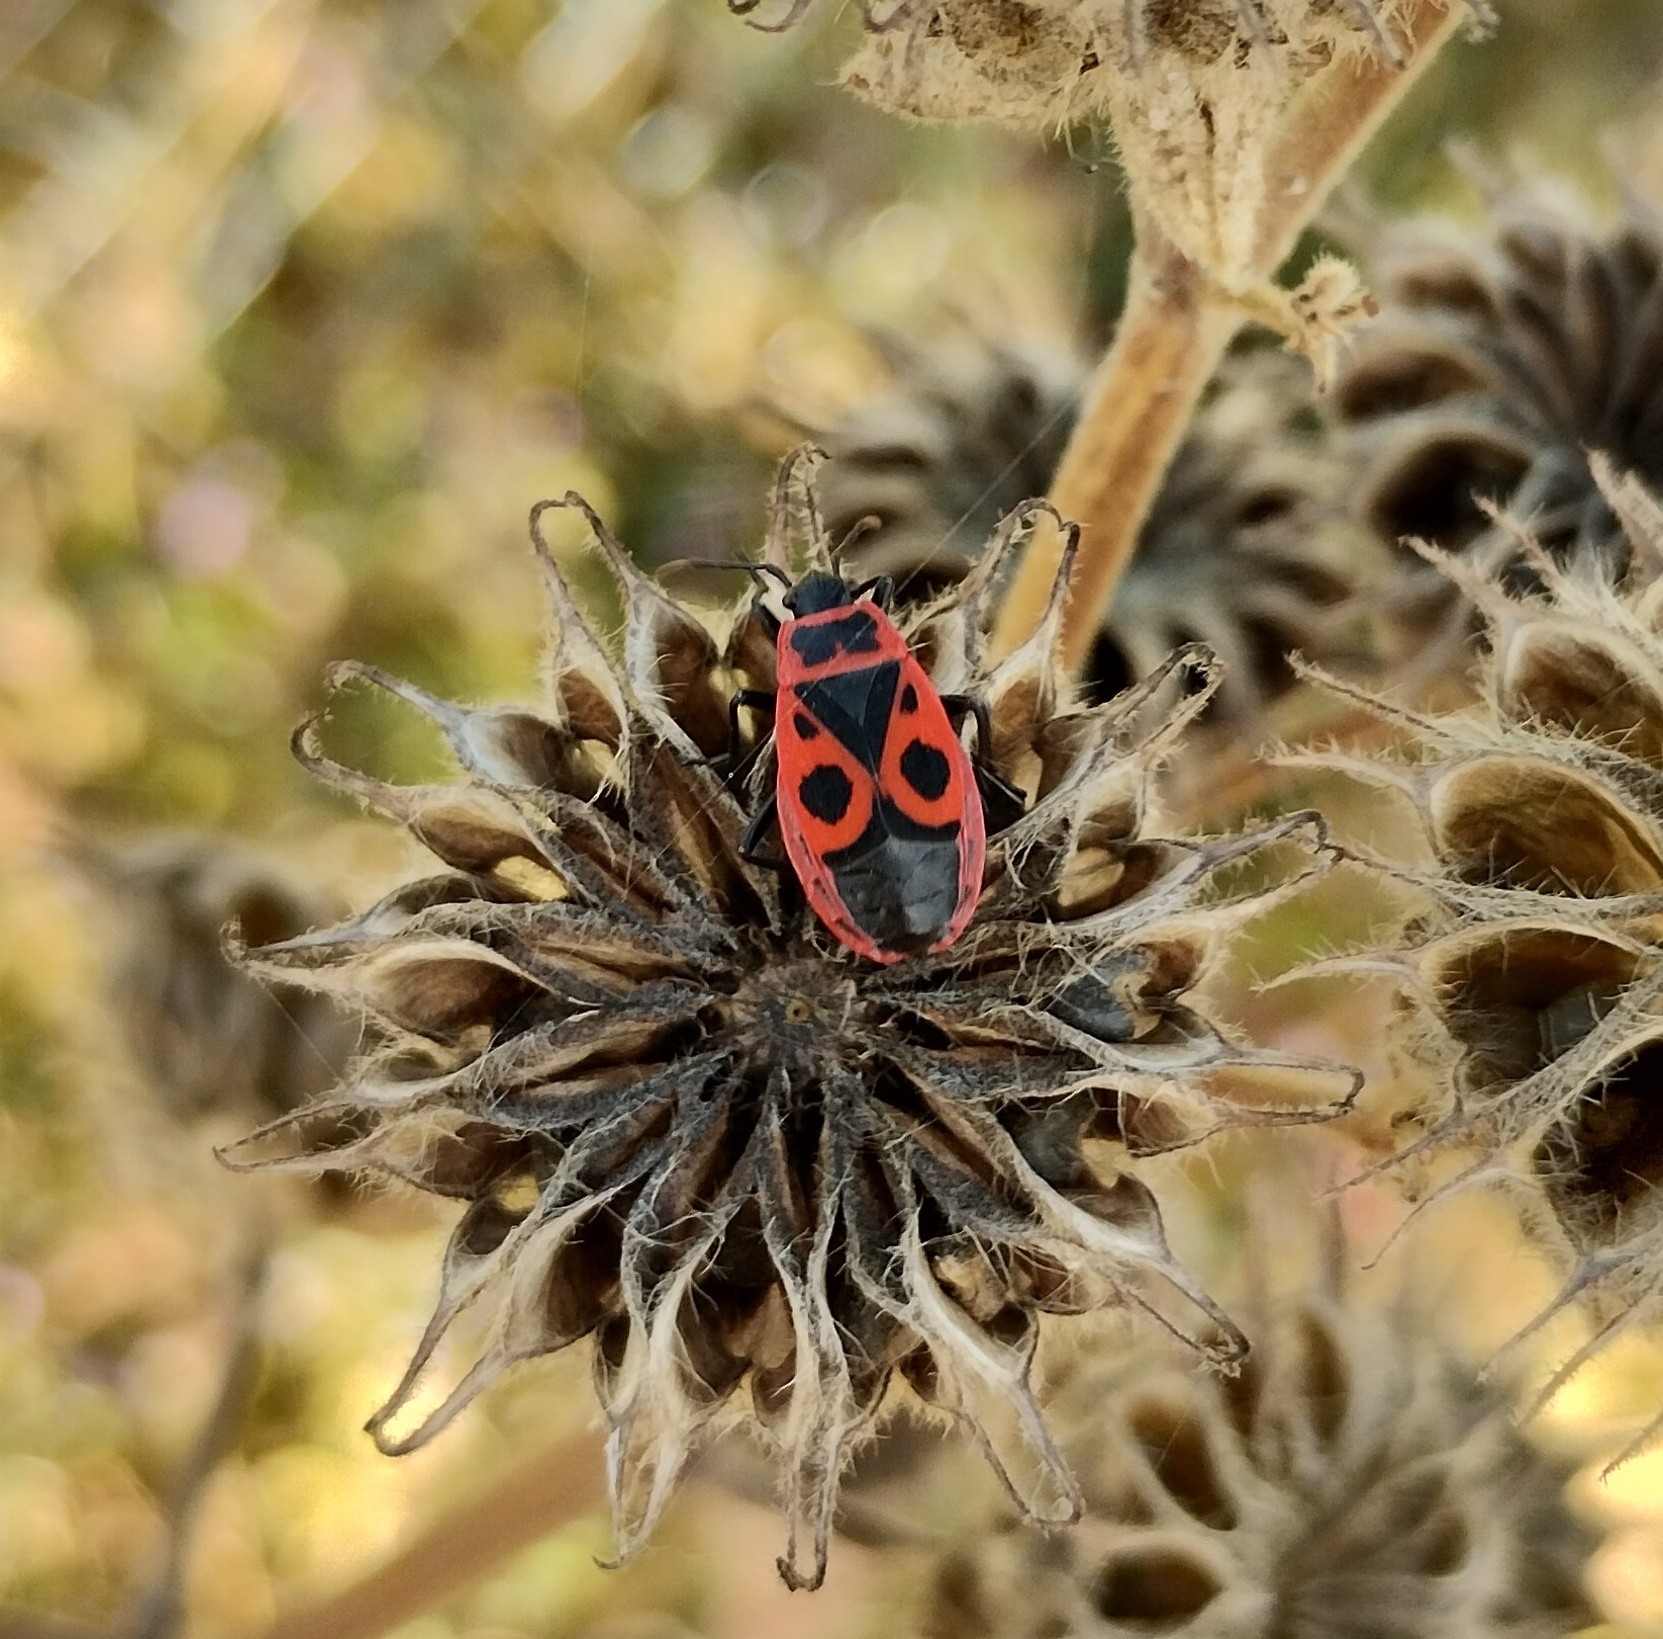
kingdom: Animalia
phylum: Arthropoda
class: Insecta
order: Hemiptera
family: Pyrrhocoridae
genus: Pyrrhocoris
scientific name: Pyrrhocoris apterus
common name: Firebug
